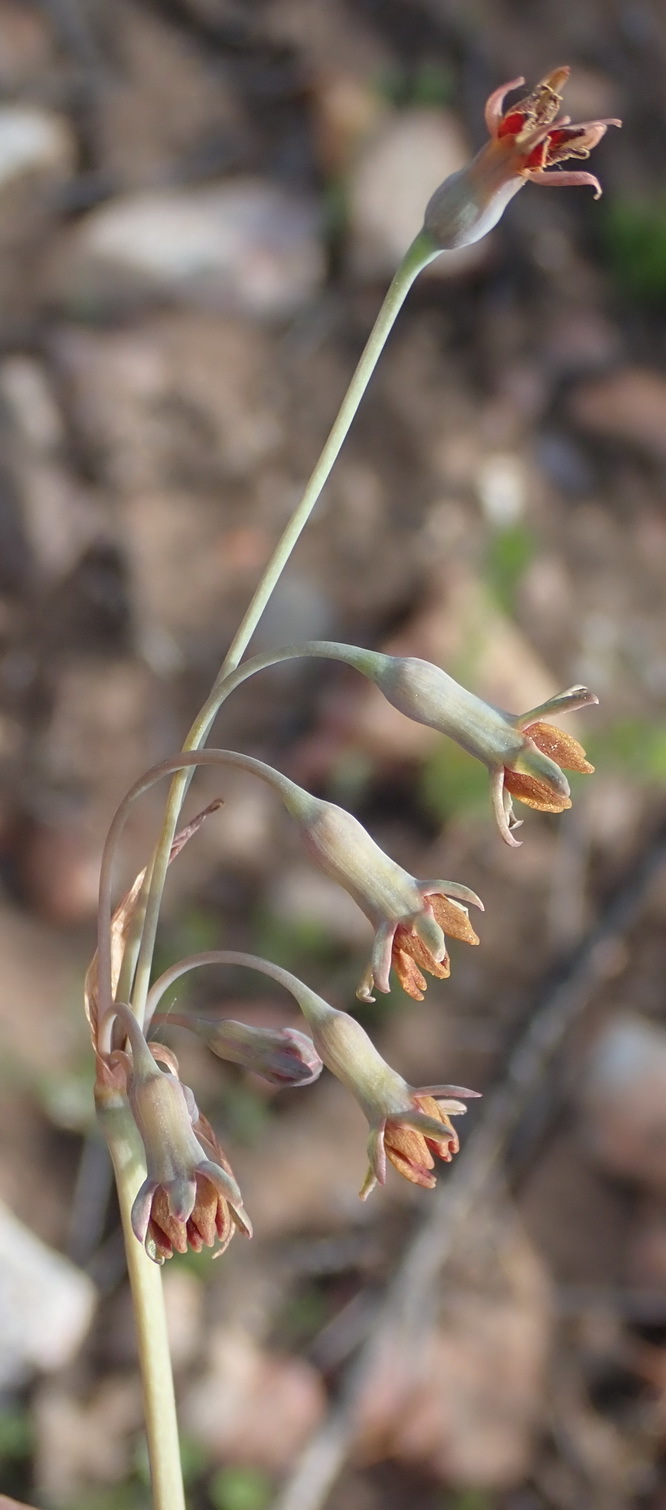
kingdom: Plantae
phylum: Tracheophyta
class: Liliopsida
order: Asparagales
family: Amaryllidaceae
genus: Tulbaghia
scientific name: Tulbaghia capensis
